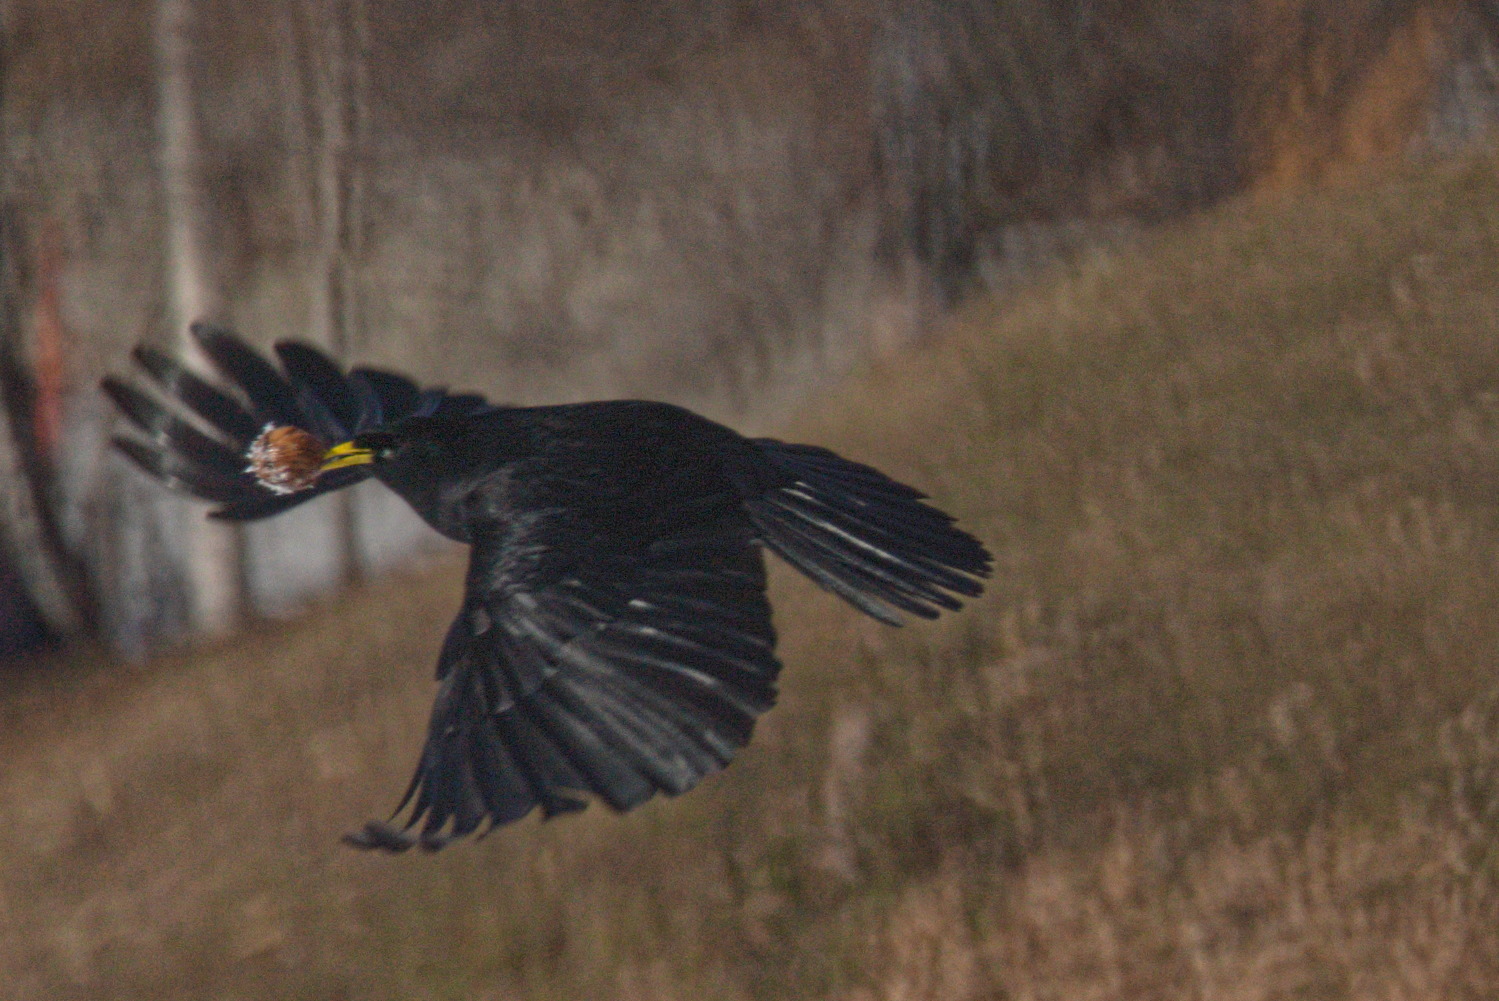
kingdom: Animalia
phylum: Chordata
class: Aves
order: Passeriformes
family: Corvidae
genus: Pyrrhocorax
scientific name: Pyrrhocorax graculus
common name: Alpine chough
